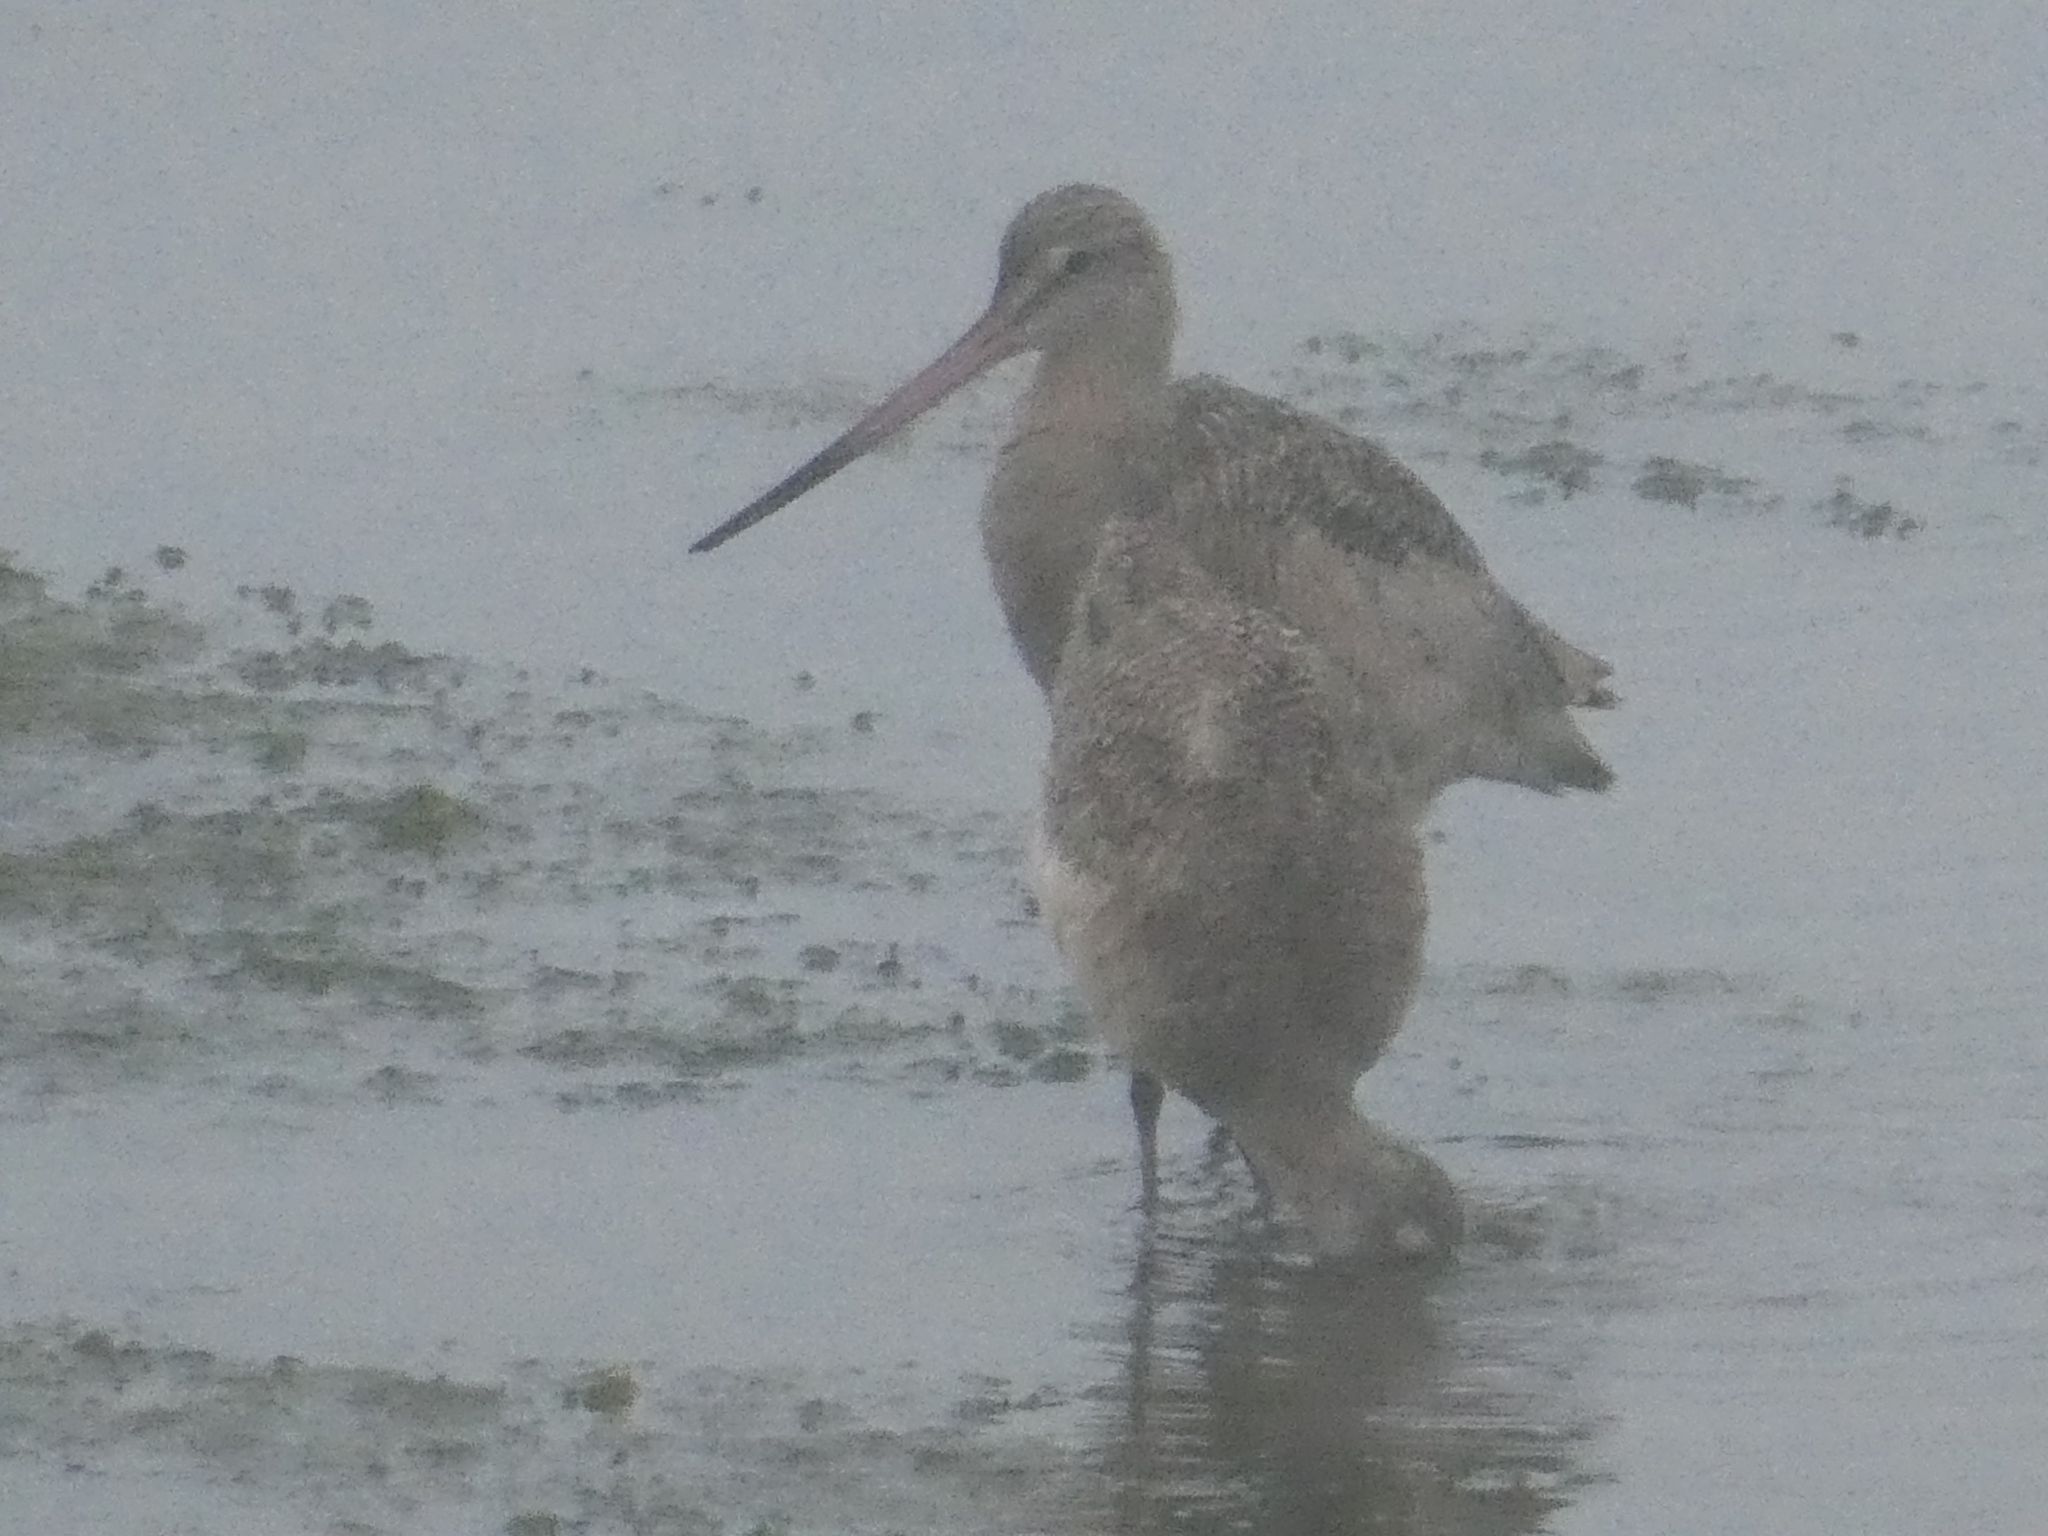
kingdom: Animalia
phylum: Chordata
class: Aves
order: Charadriiformes
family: Scolopacidae
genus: Limosa
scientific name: Limosa fedoa
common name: Marbled godwit
